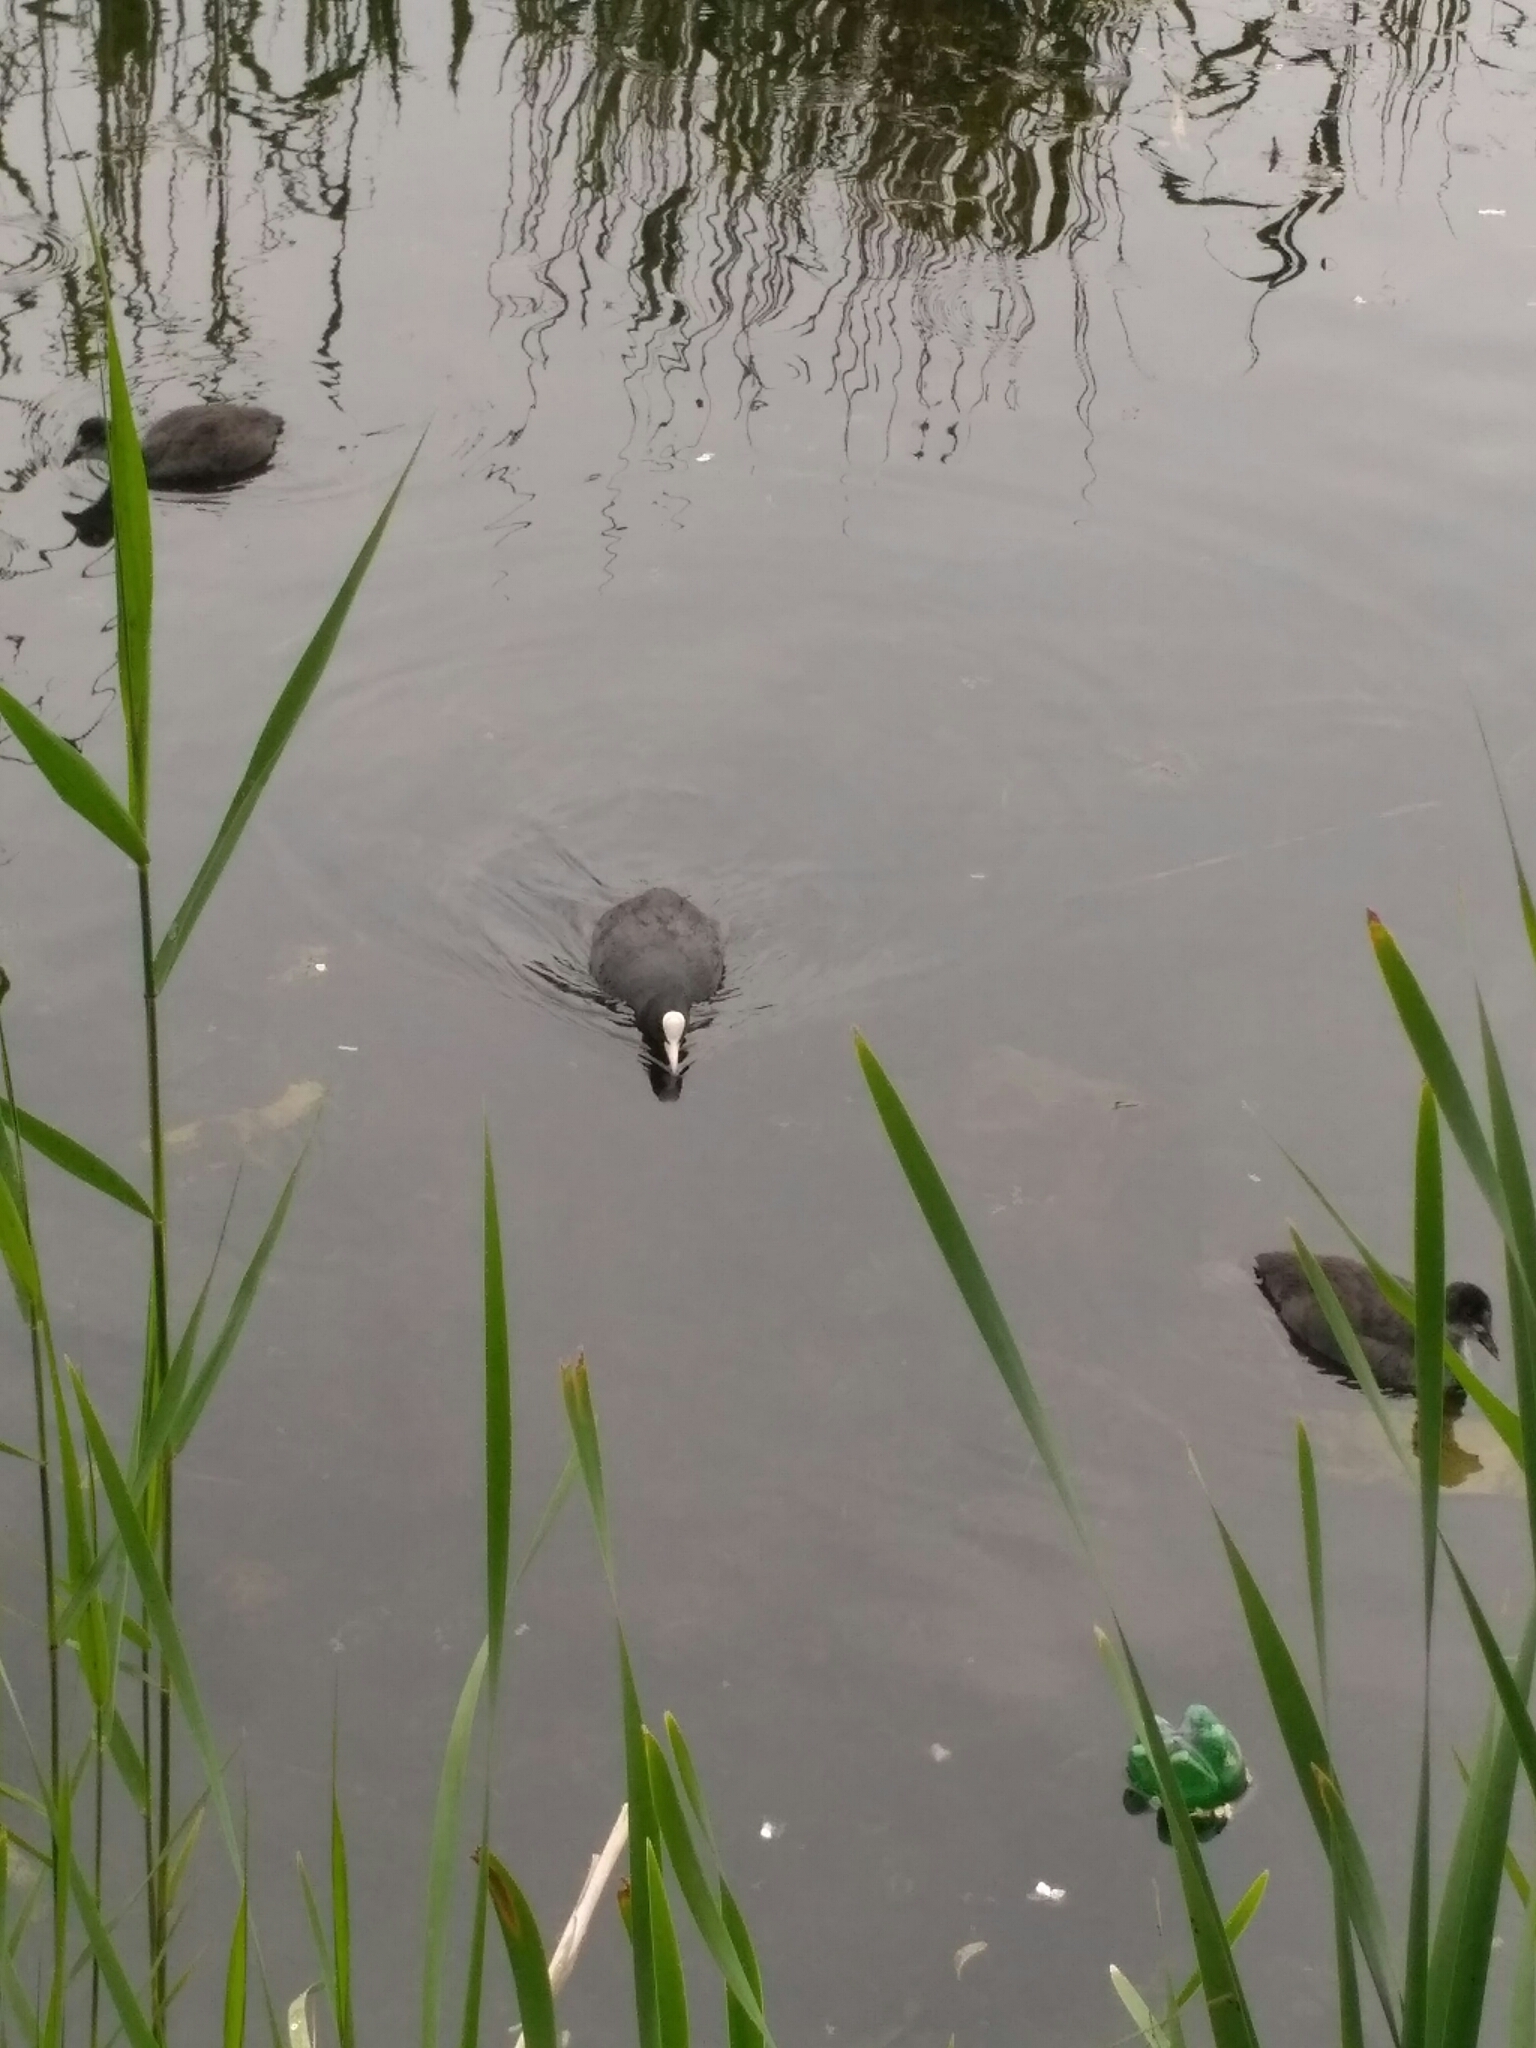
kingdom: Animalia
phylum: Chordata
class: Aves
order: Gruiformes
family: Rallidae
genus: Fulica
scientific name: Fulica atra
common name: Eurasian coot
